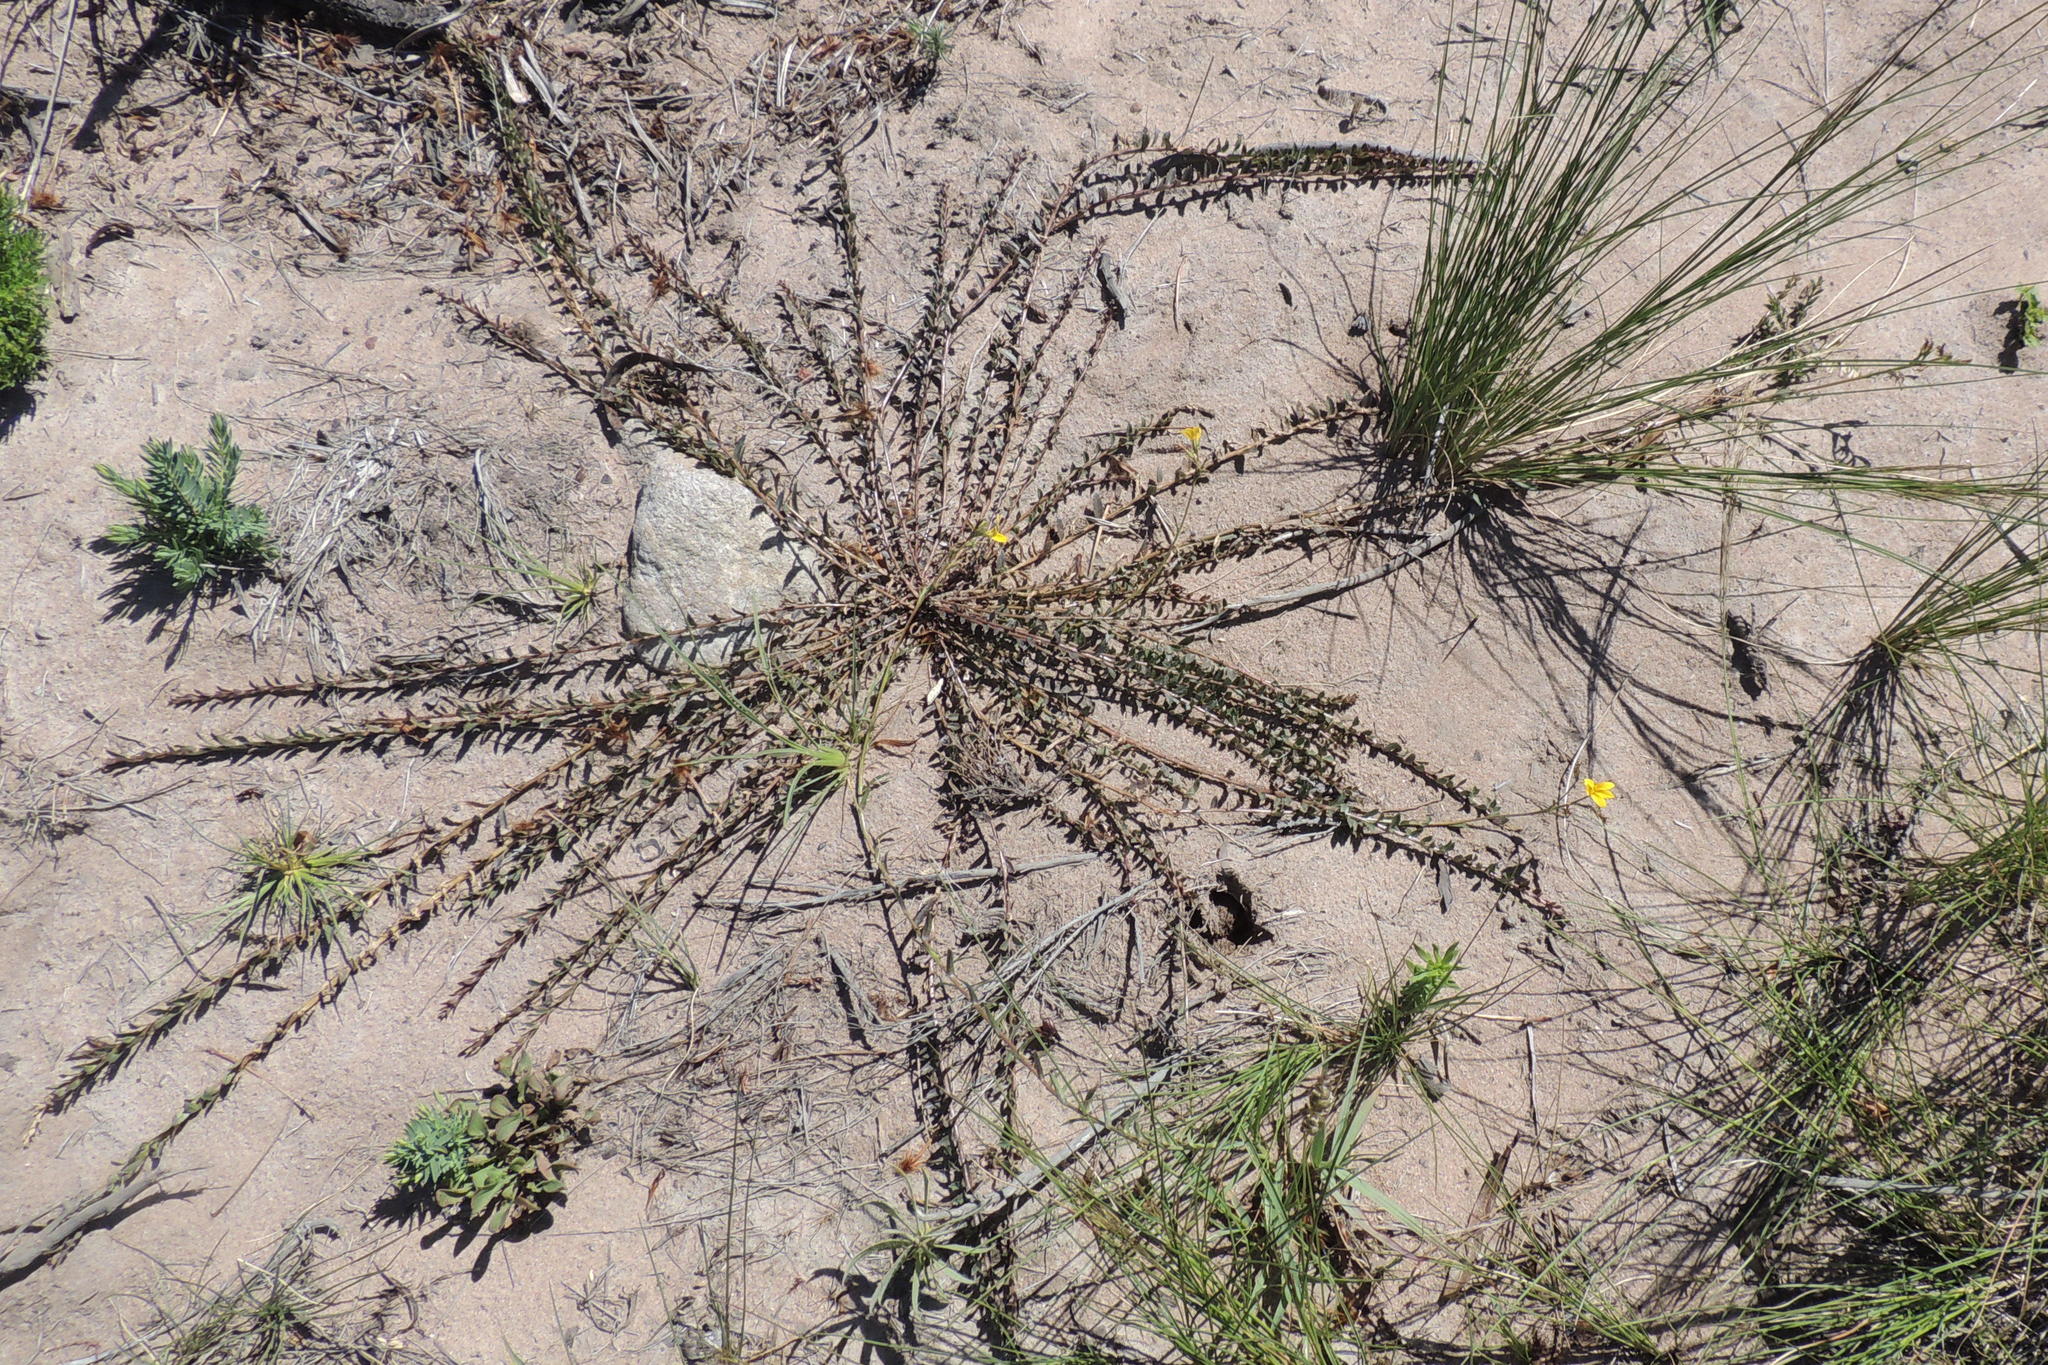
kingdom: Plantae
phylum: Tracheophyta
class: Magnoliopsida
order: Asterales
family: Campanulaceae
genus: Monopsis
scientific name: Monopsis lutea
